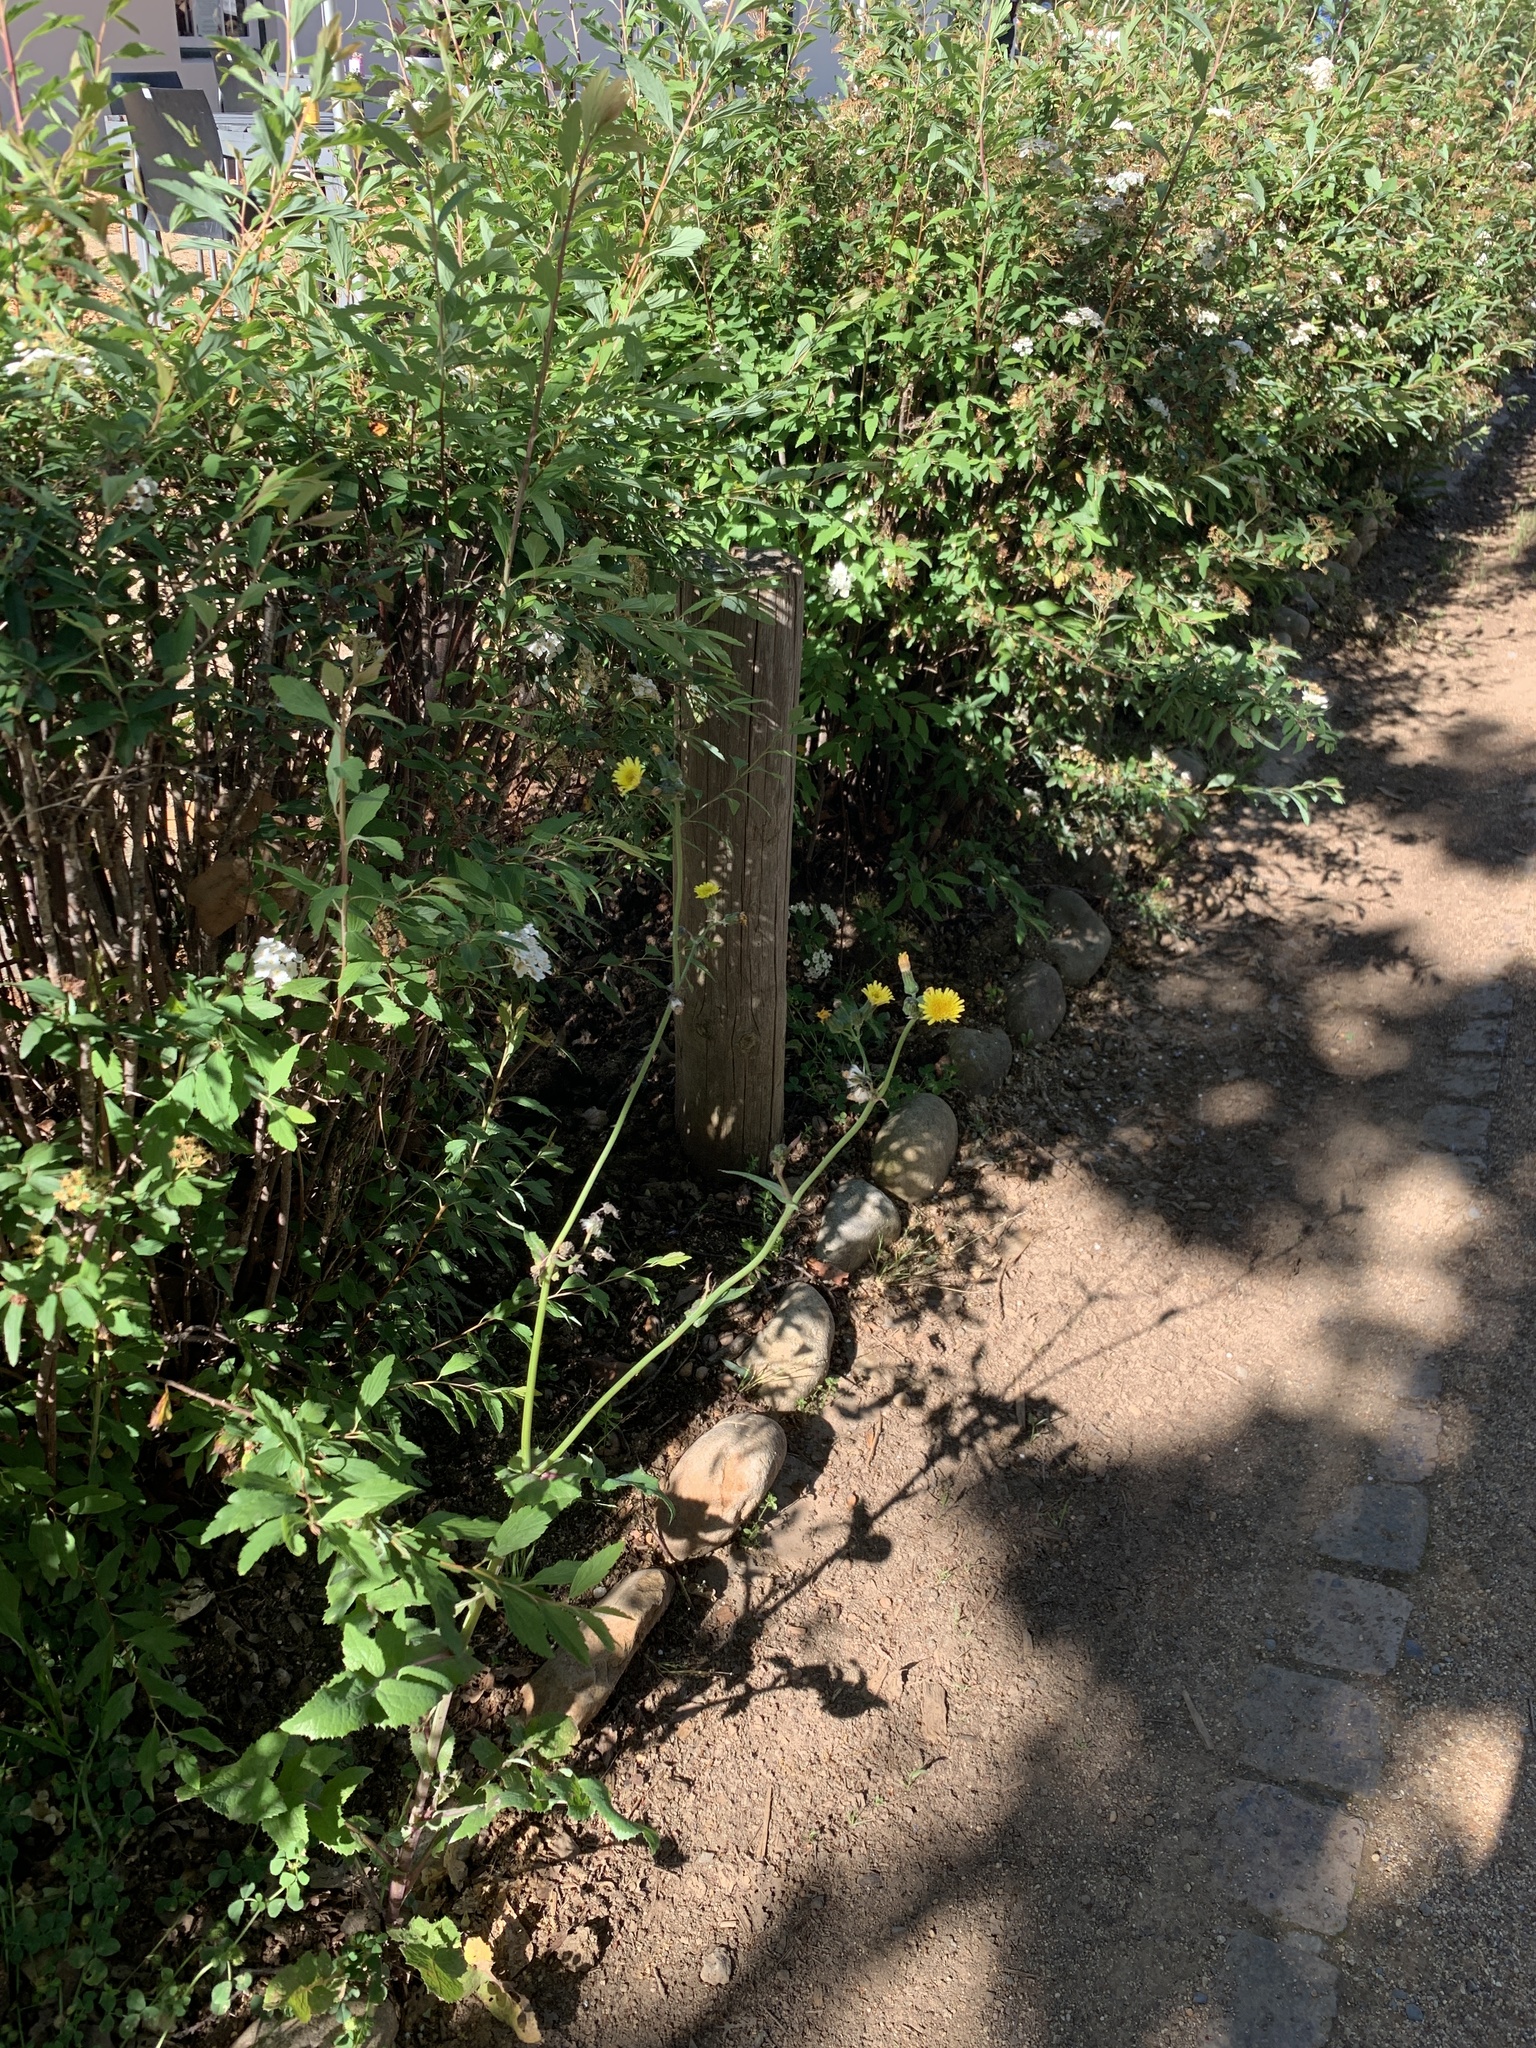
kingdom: Plantae
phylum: Tracheophyta
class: Magnoliopsida
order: Asterales
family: Asteraceae
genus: Sonchus
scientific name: Sonchus oleraceus
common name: Common sowthistle
